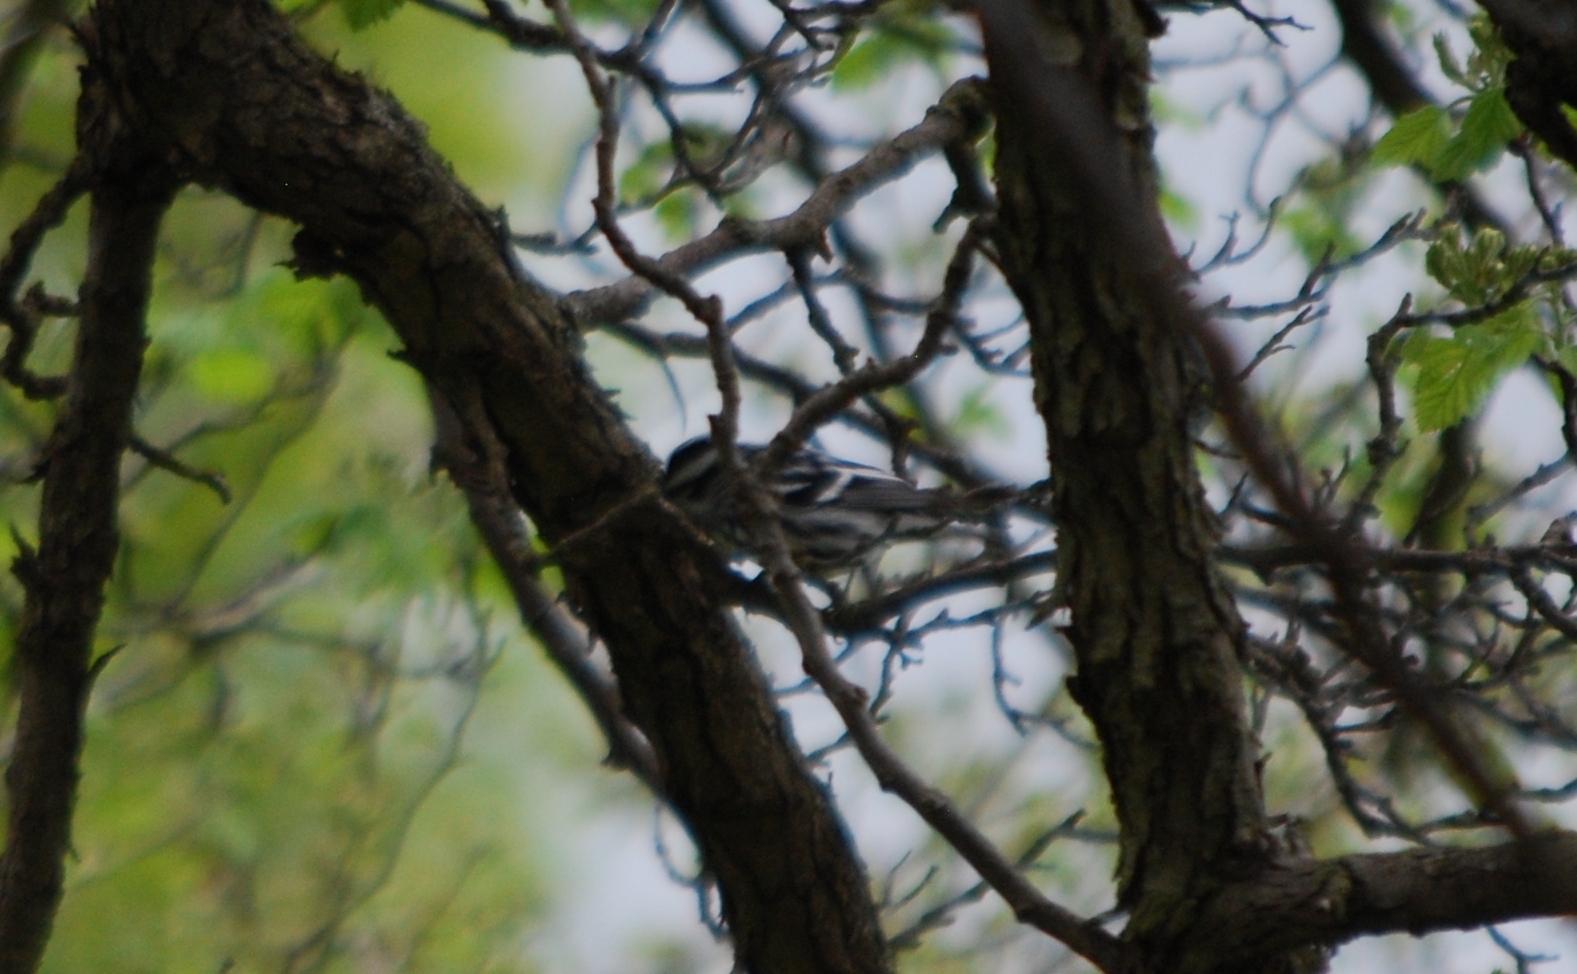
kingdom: Animalia
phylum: Chordata
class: Aves
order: Passeriformes
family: Parulidae
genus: Mniotilta
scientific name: Mniotilta varia
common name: Black-and-white warbler
